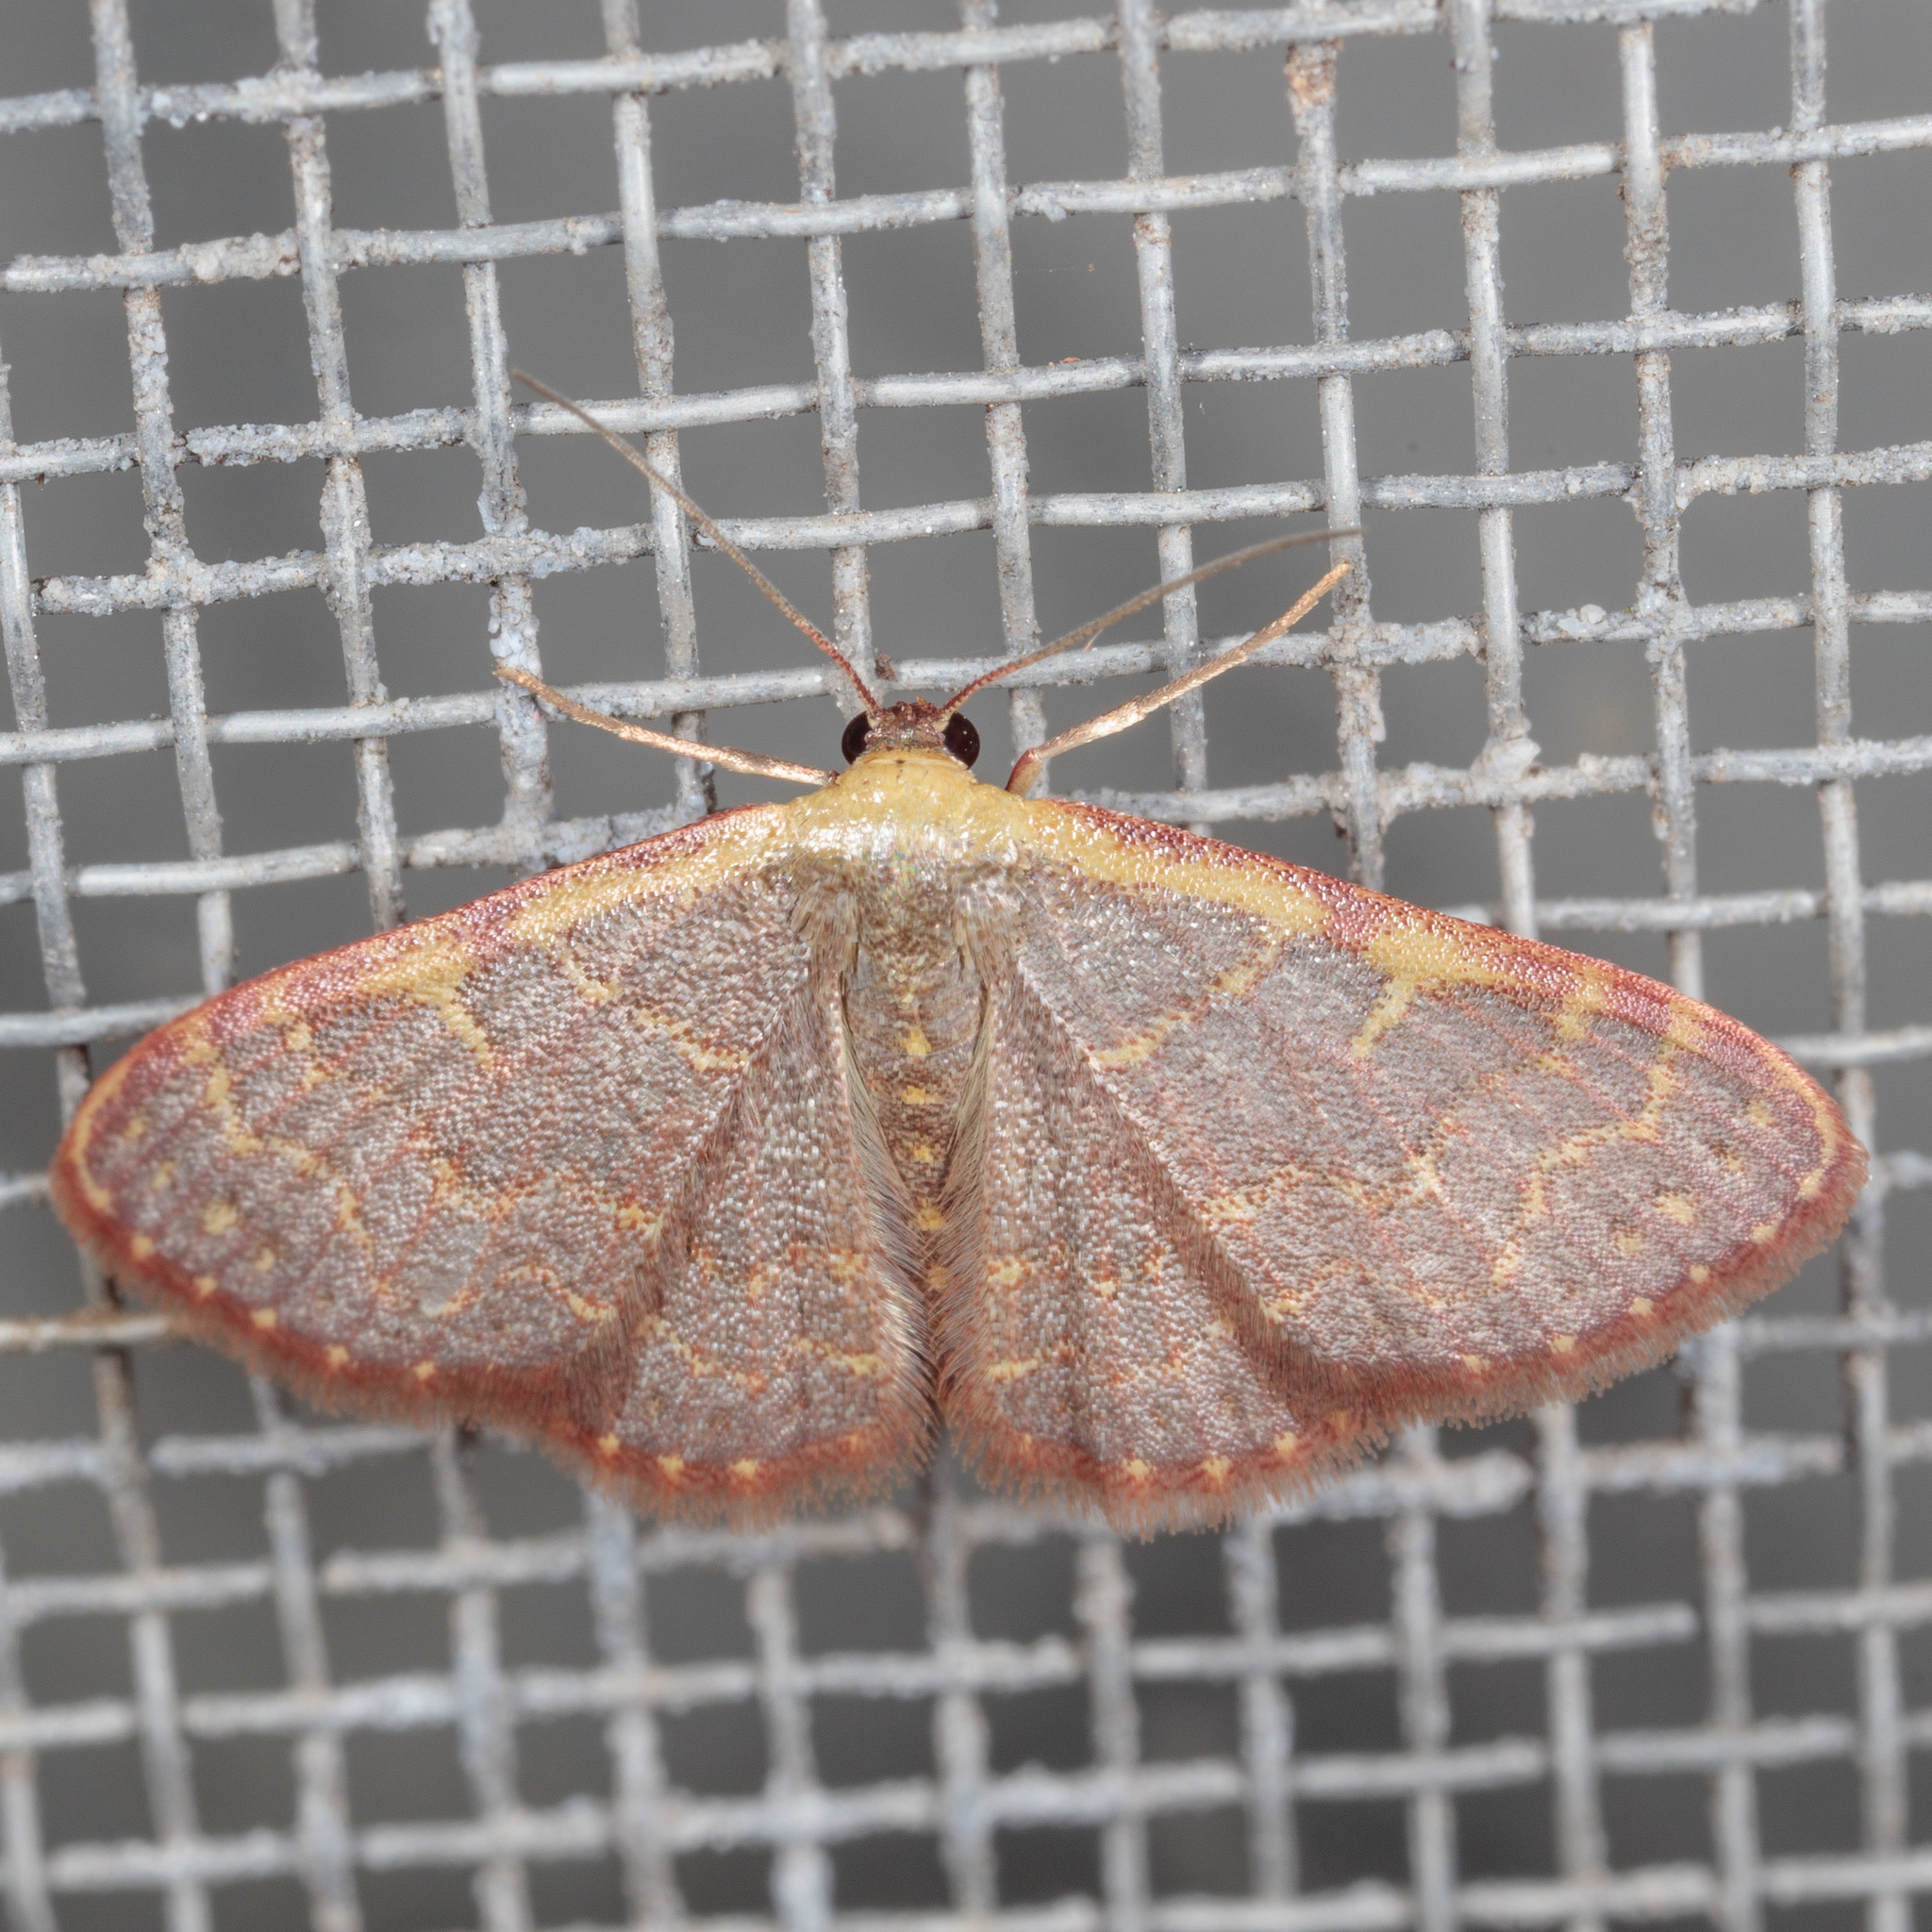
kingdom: Animalia
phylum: Arthropoda
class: Insecta
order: Lepidoptera
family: Geometridae
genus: Leptostales
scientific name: Leptostales pannaria
